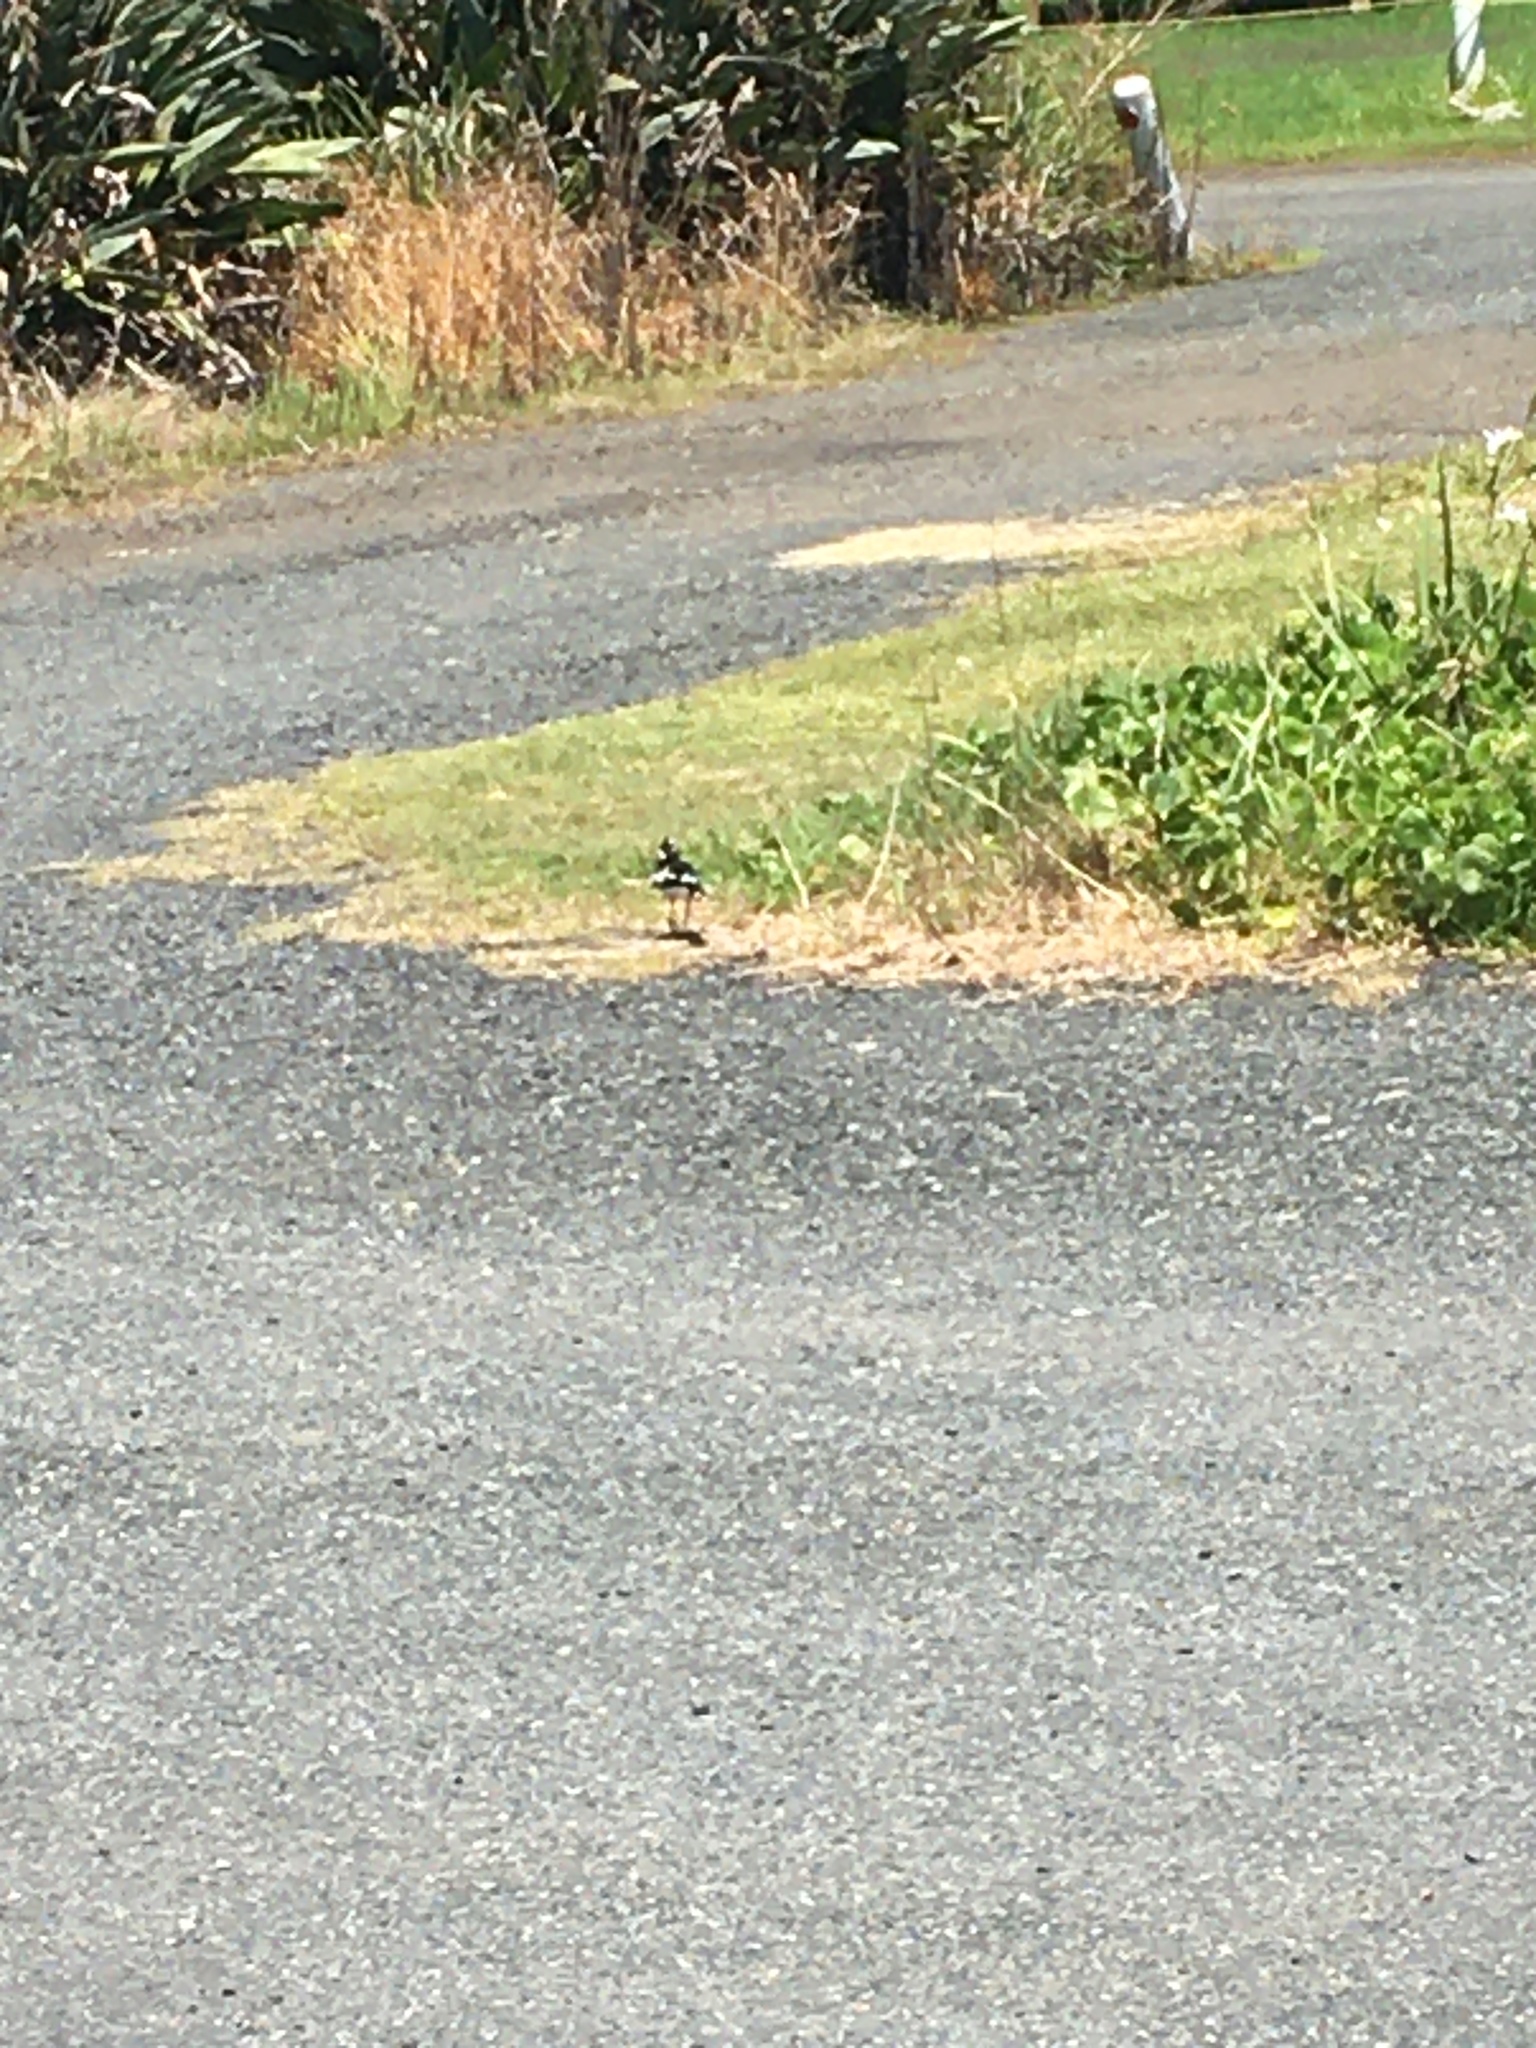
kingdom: Animalia
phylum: Chordata
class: Aves
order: Passeriformes
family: Monarchidae
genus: Grallina
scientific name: Grallina cyanoleuca
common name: Magpie-lark
